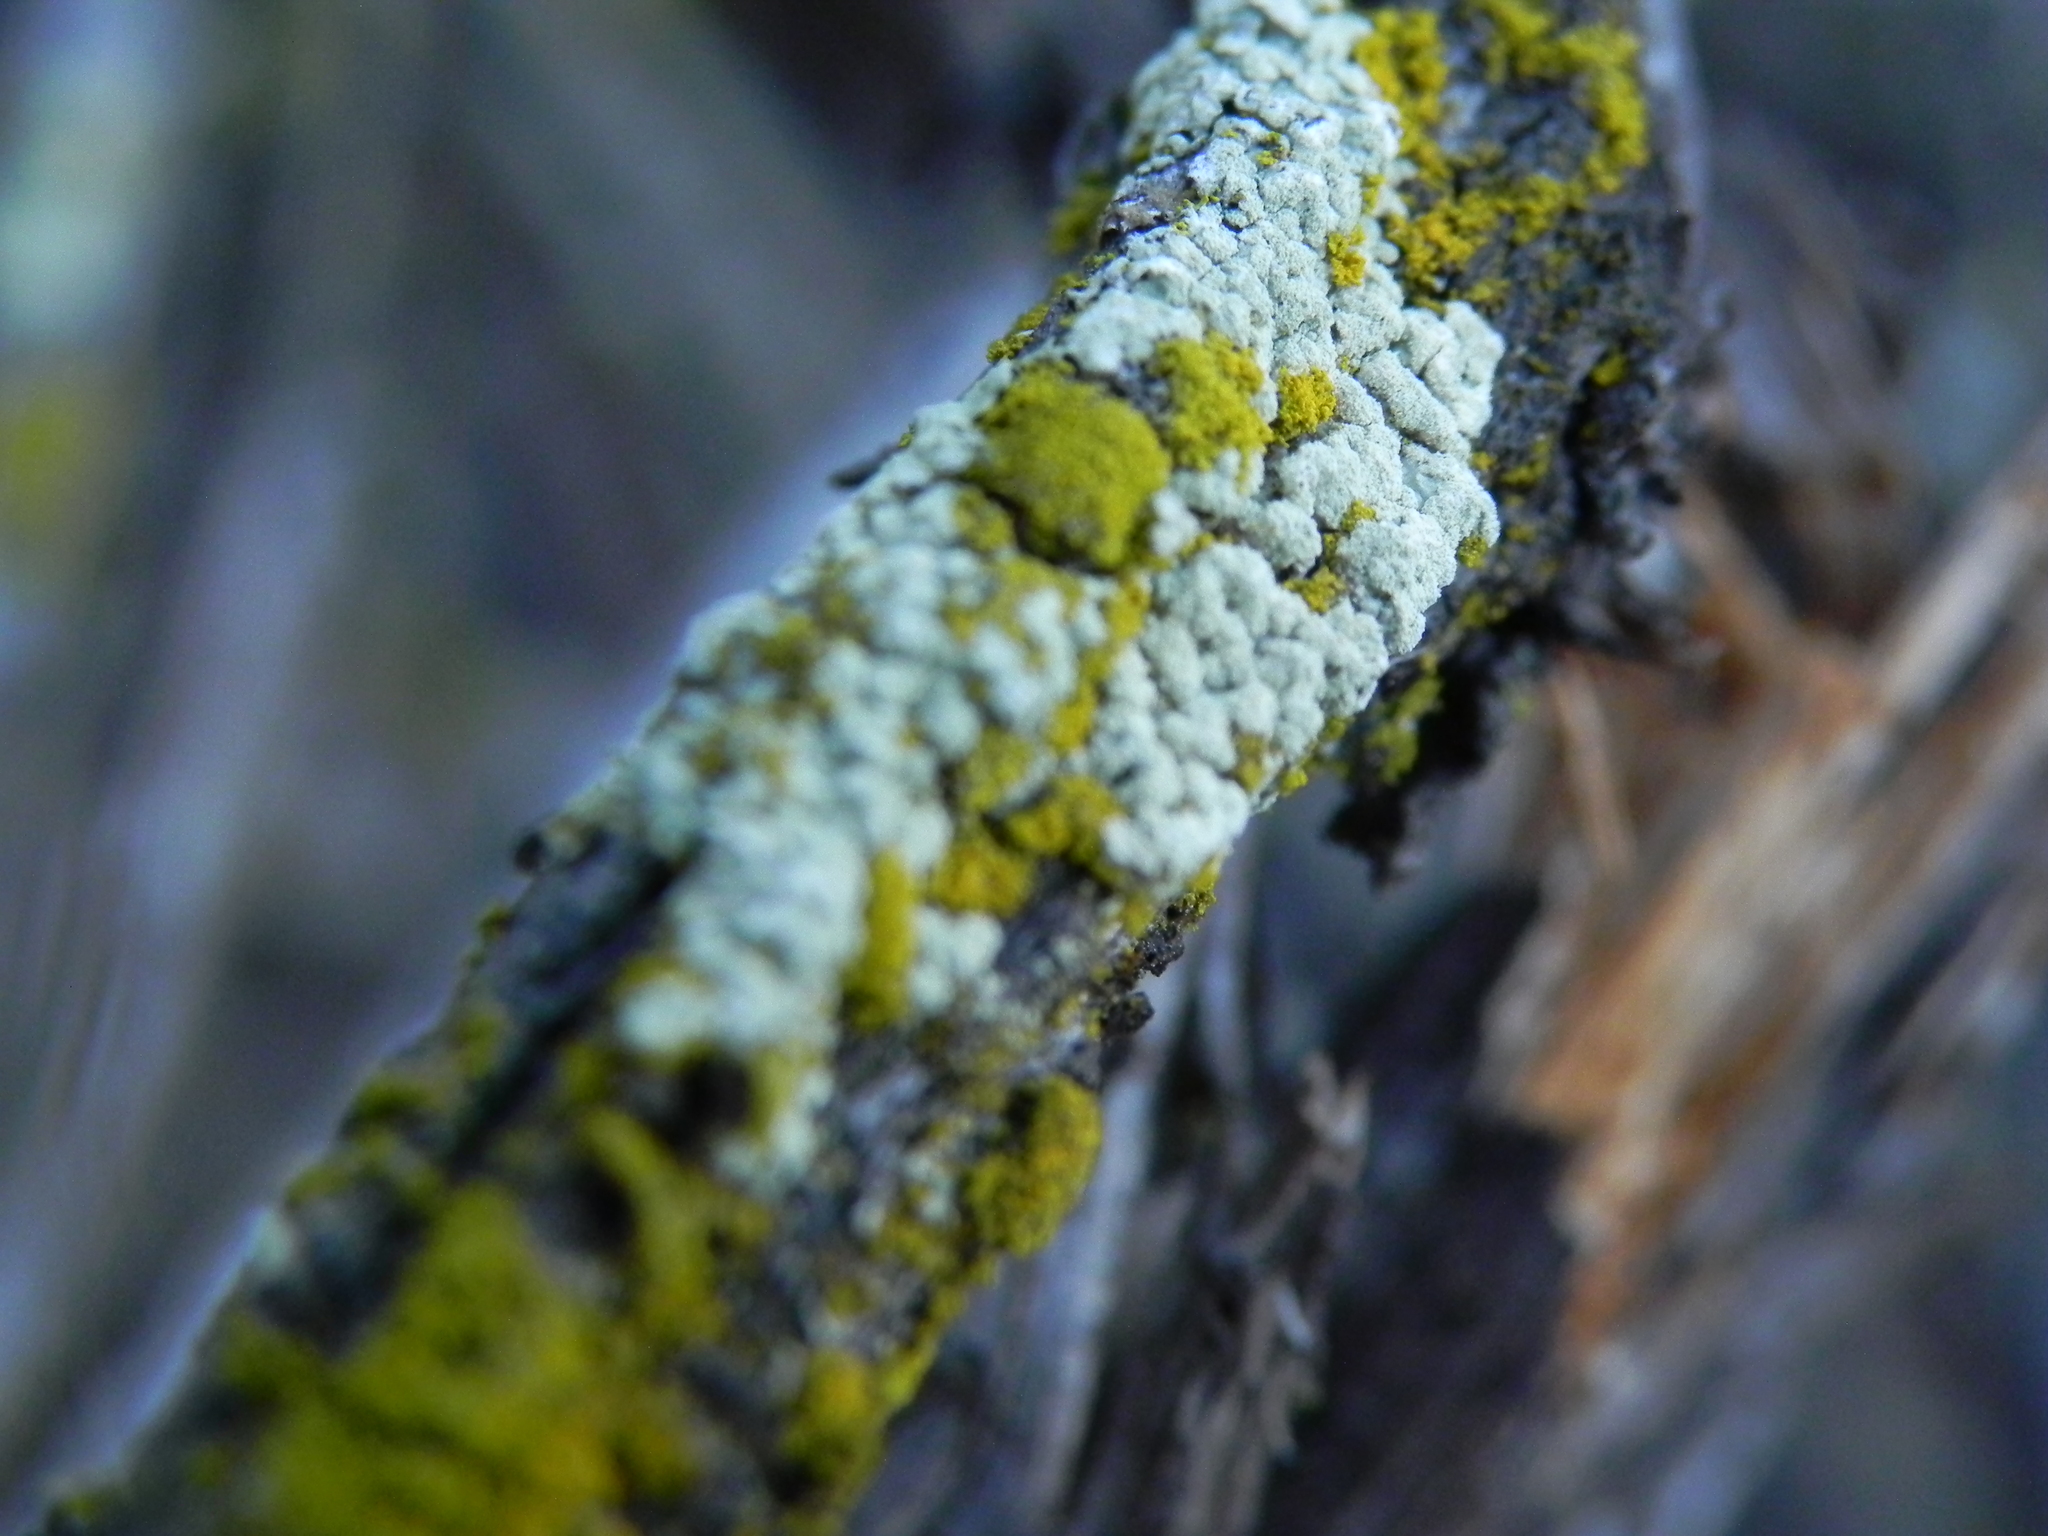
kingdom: Fungi
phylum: Ascomycota
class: Lecanoromycetes
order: Lecanorales
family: Parmeliaceae
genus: Flavoparmelia
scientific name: Flavoparmelia subcapitata
